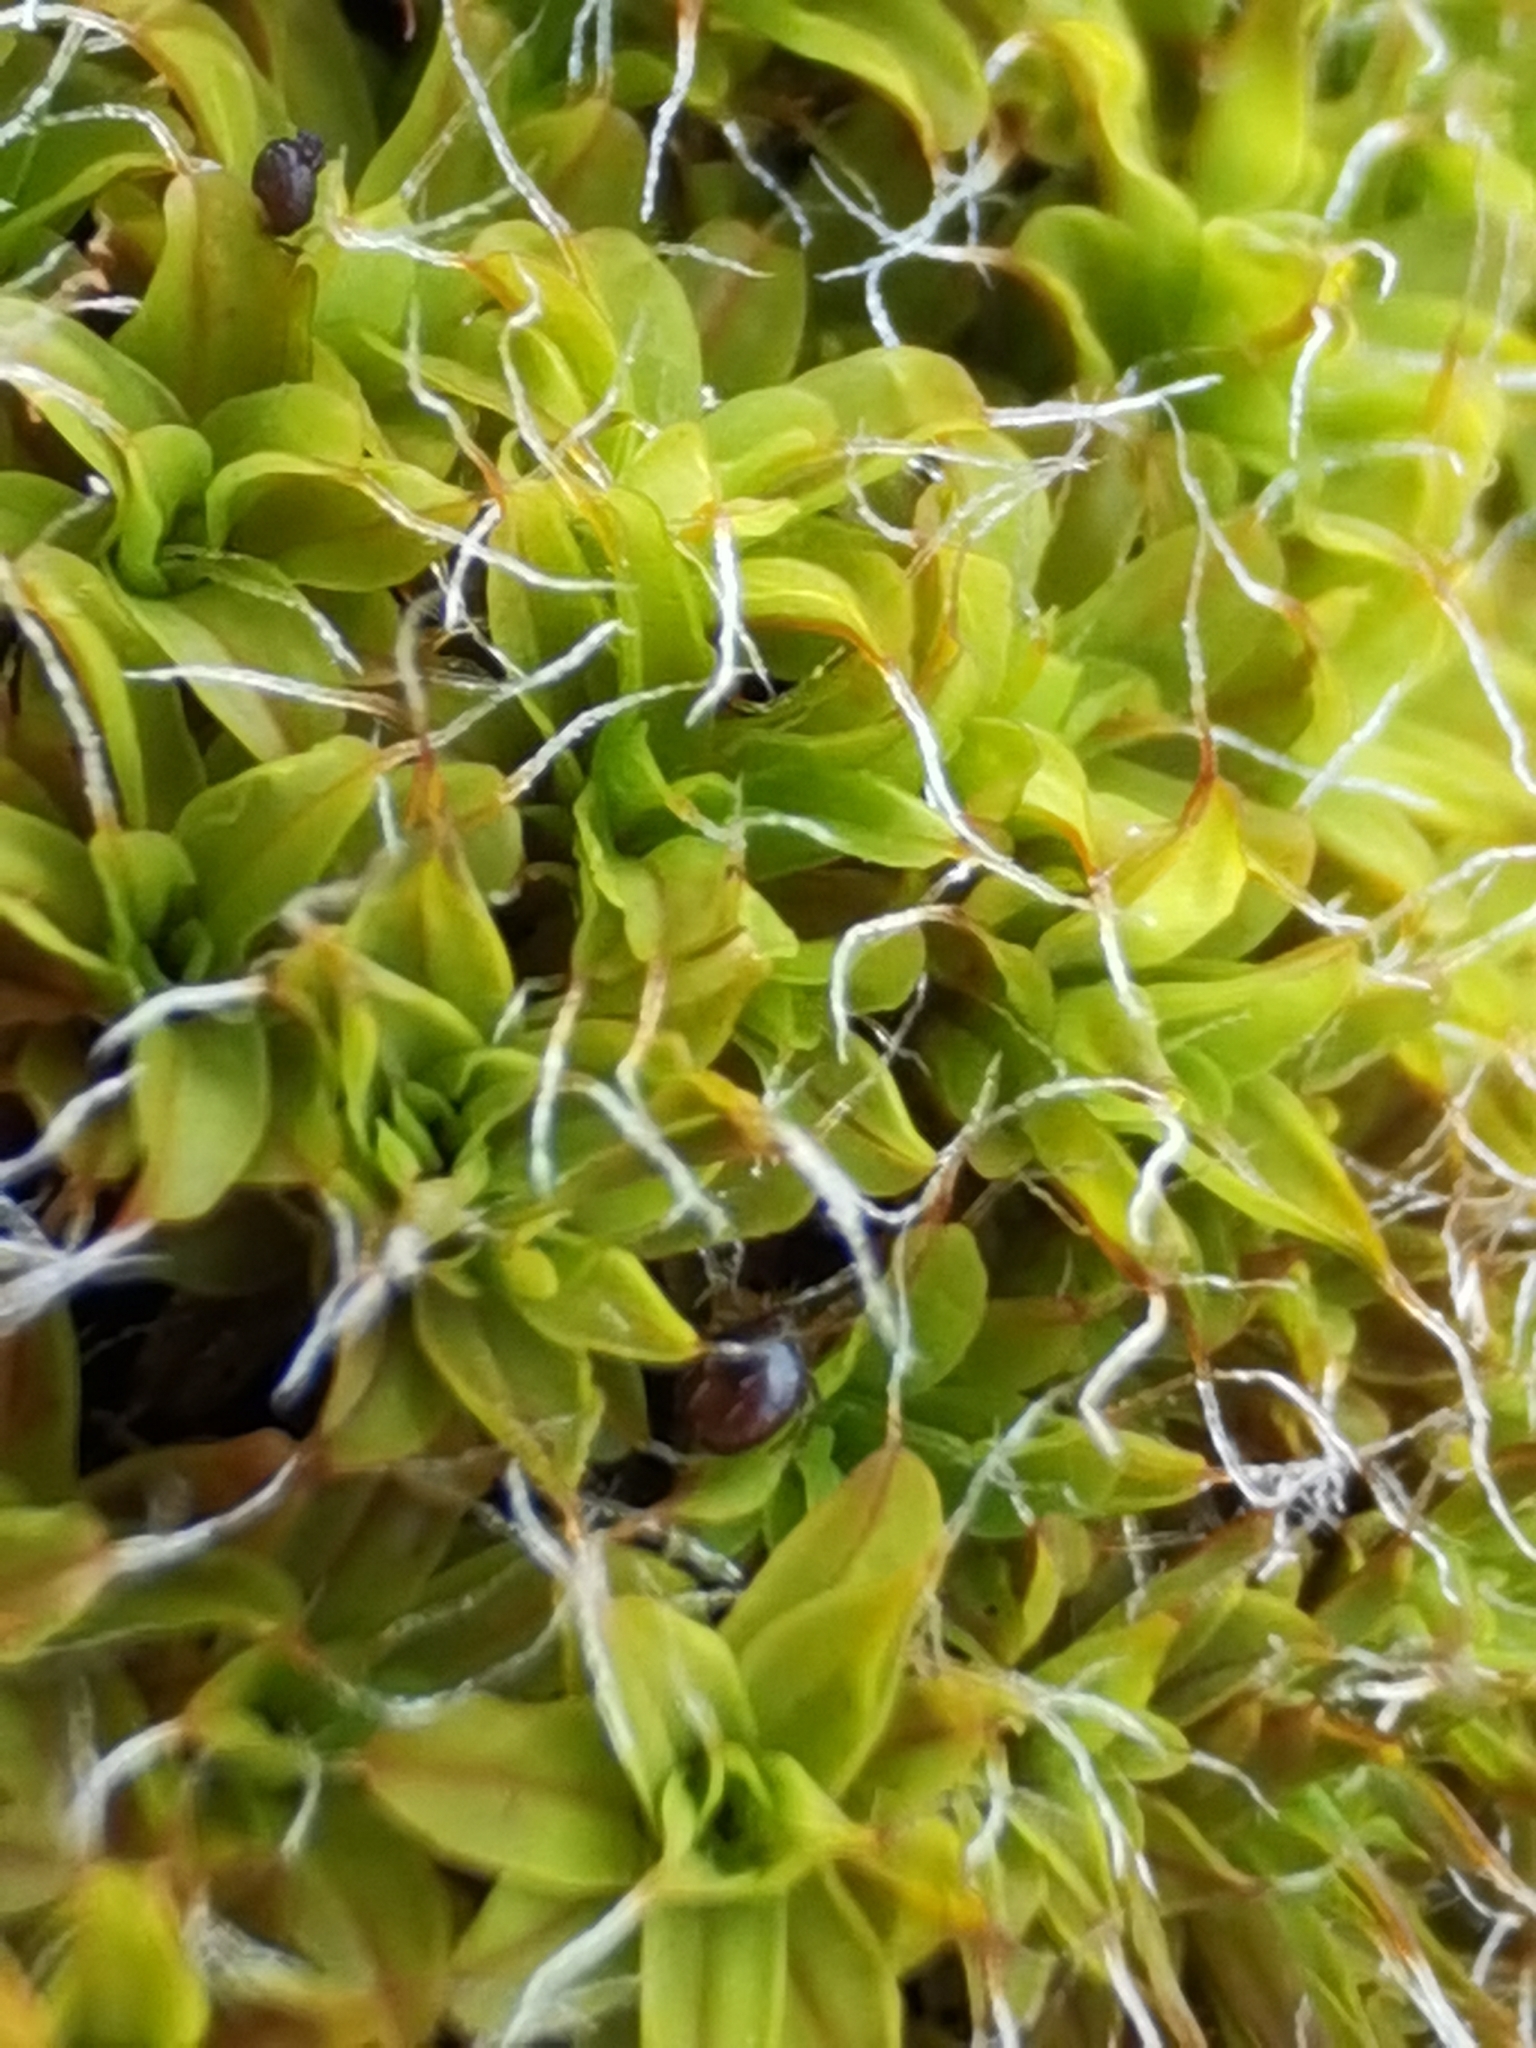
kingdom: Plantae
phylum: Bryophyta
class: Bryopsida
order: Pottiales
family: Pottiaceae
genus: Tortula
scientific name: Tortula muralis
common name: Wall screw-moss
